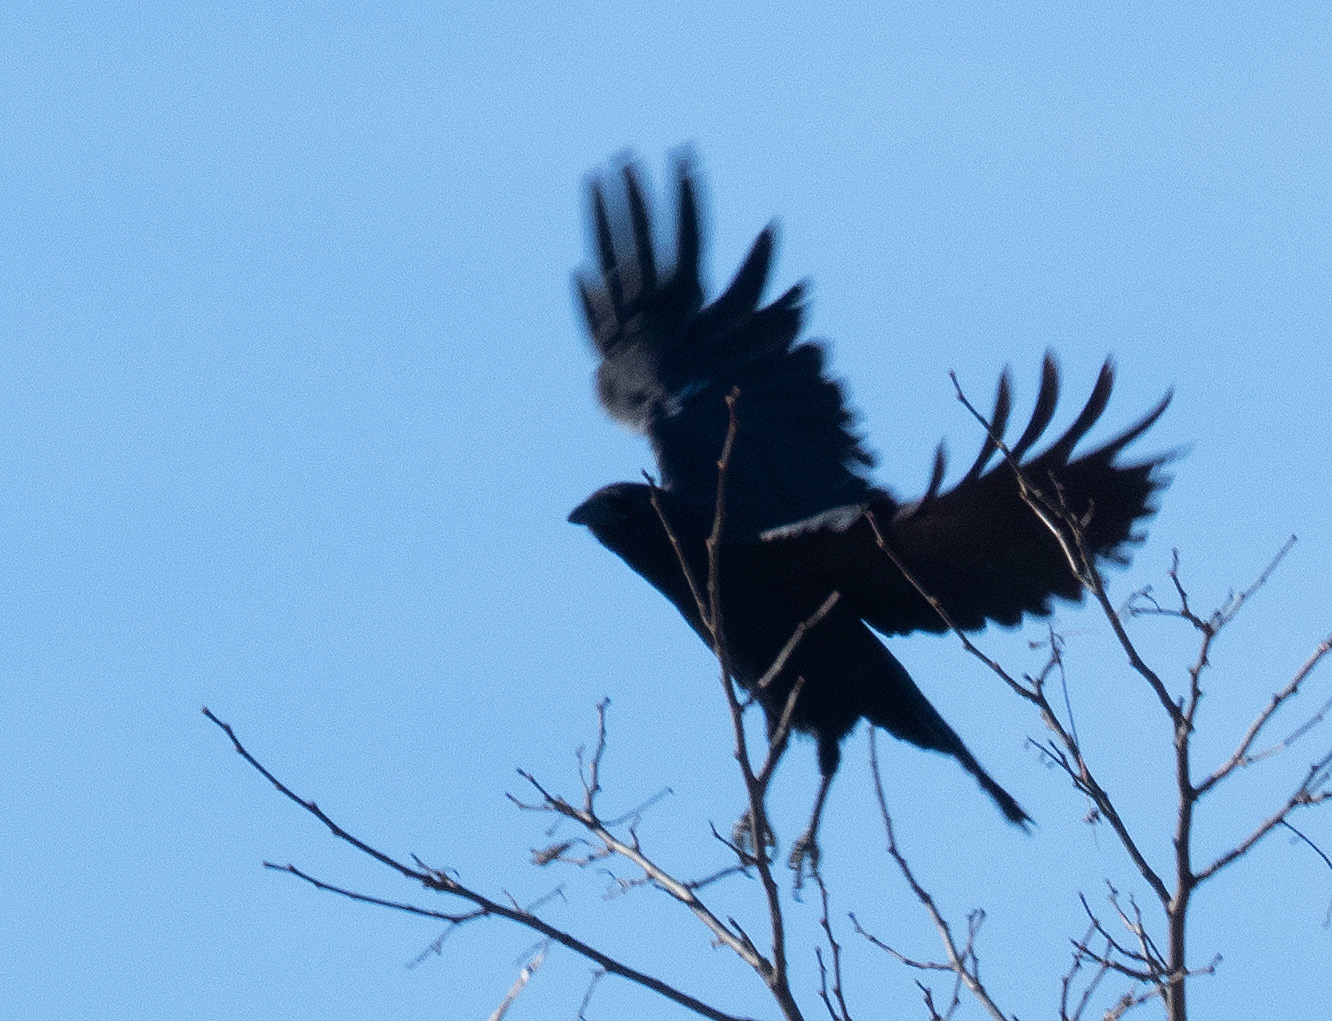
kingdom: Animalia
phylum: Chordata
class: Aves
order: Passeriformes
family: Corvidae
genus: Corvus
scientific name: Corvus brachyrhynchos
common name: American crow
